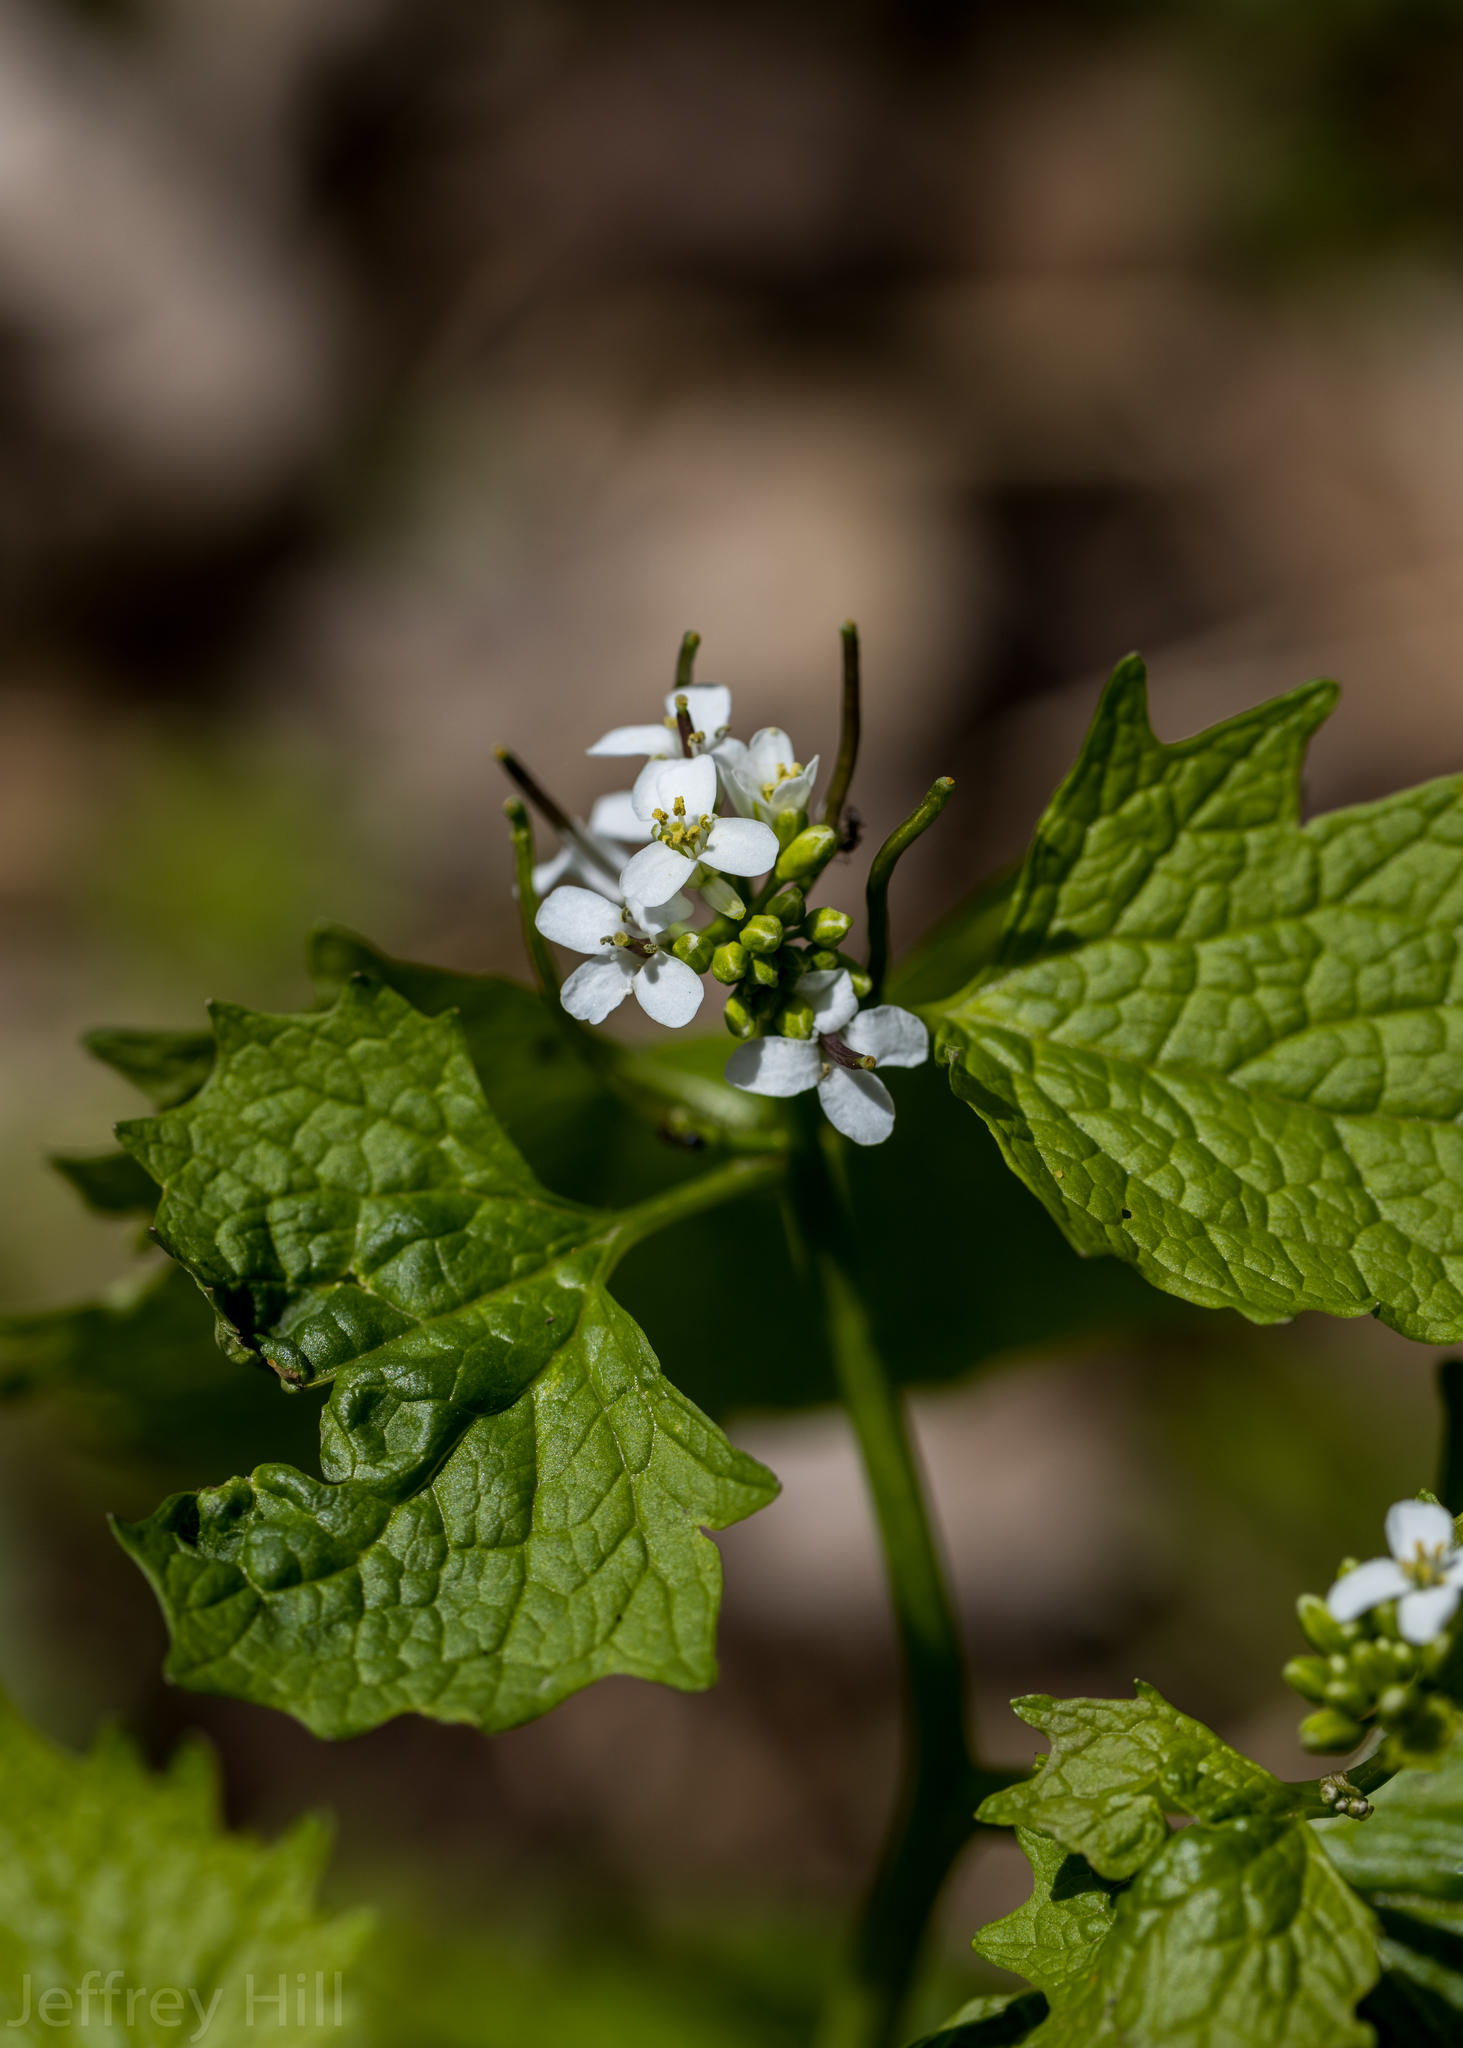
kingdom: Plantae
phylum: Tracheophyta
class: Magnoliopsida
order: Brassicales
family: Brassicaceae
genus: Alliaria
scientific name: Alliaria petiolata
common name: Garlic mustard
